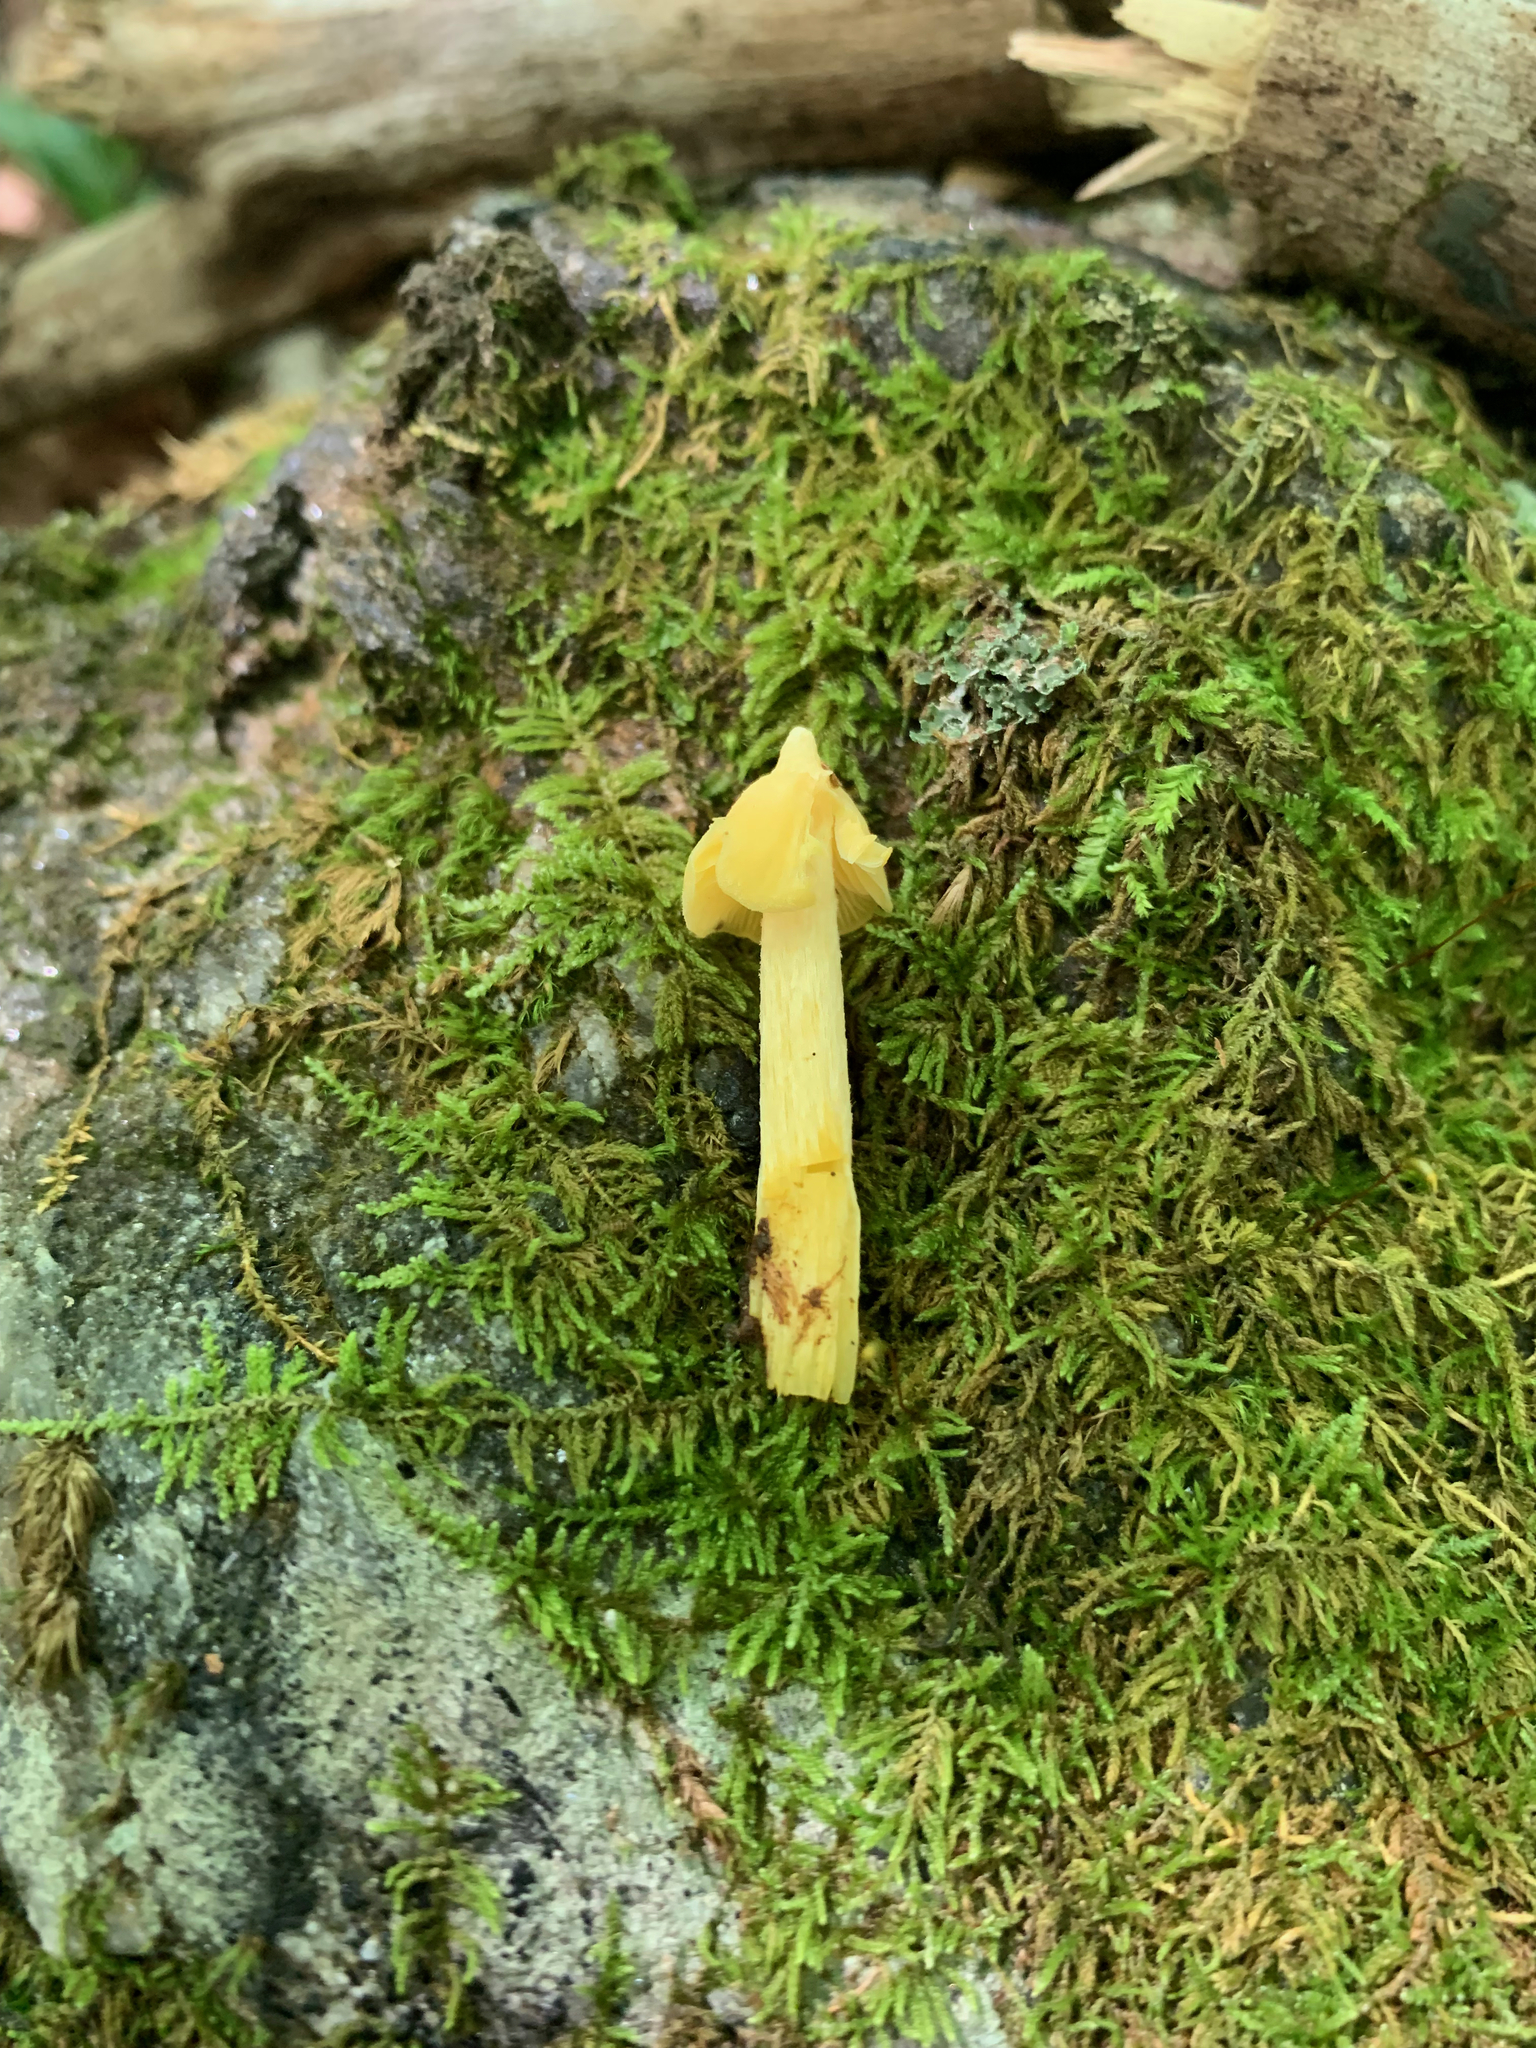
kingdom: Fungi
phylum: Basidiomycota
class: Agaricomycetes
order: Agaricales
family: Entolomataceae
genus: Entoloma
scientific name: Entoloma murrayi
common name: Yellow unicorn entoloma
